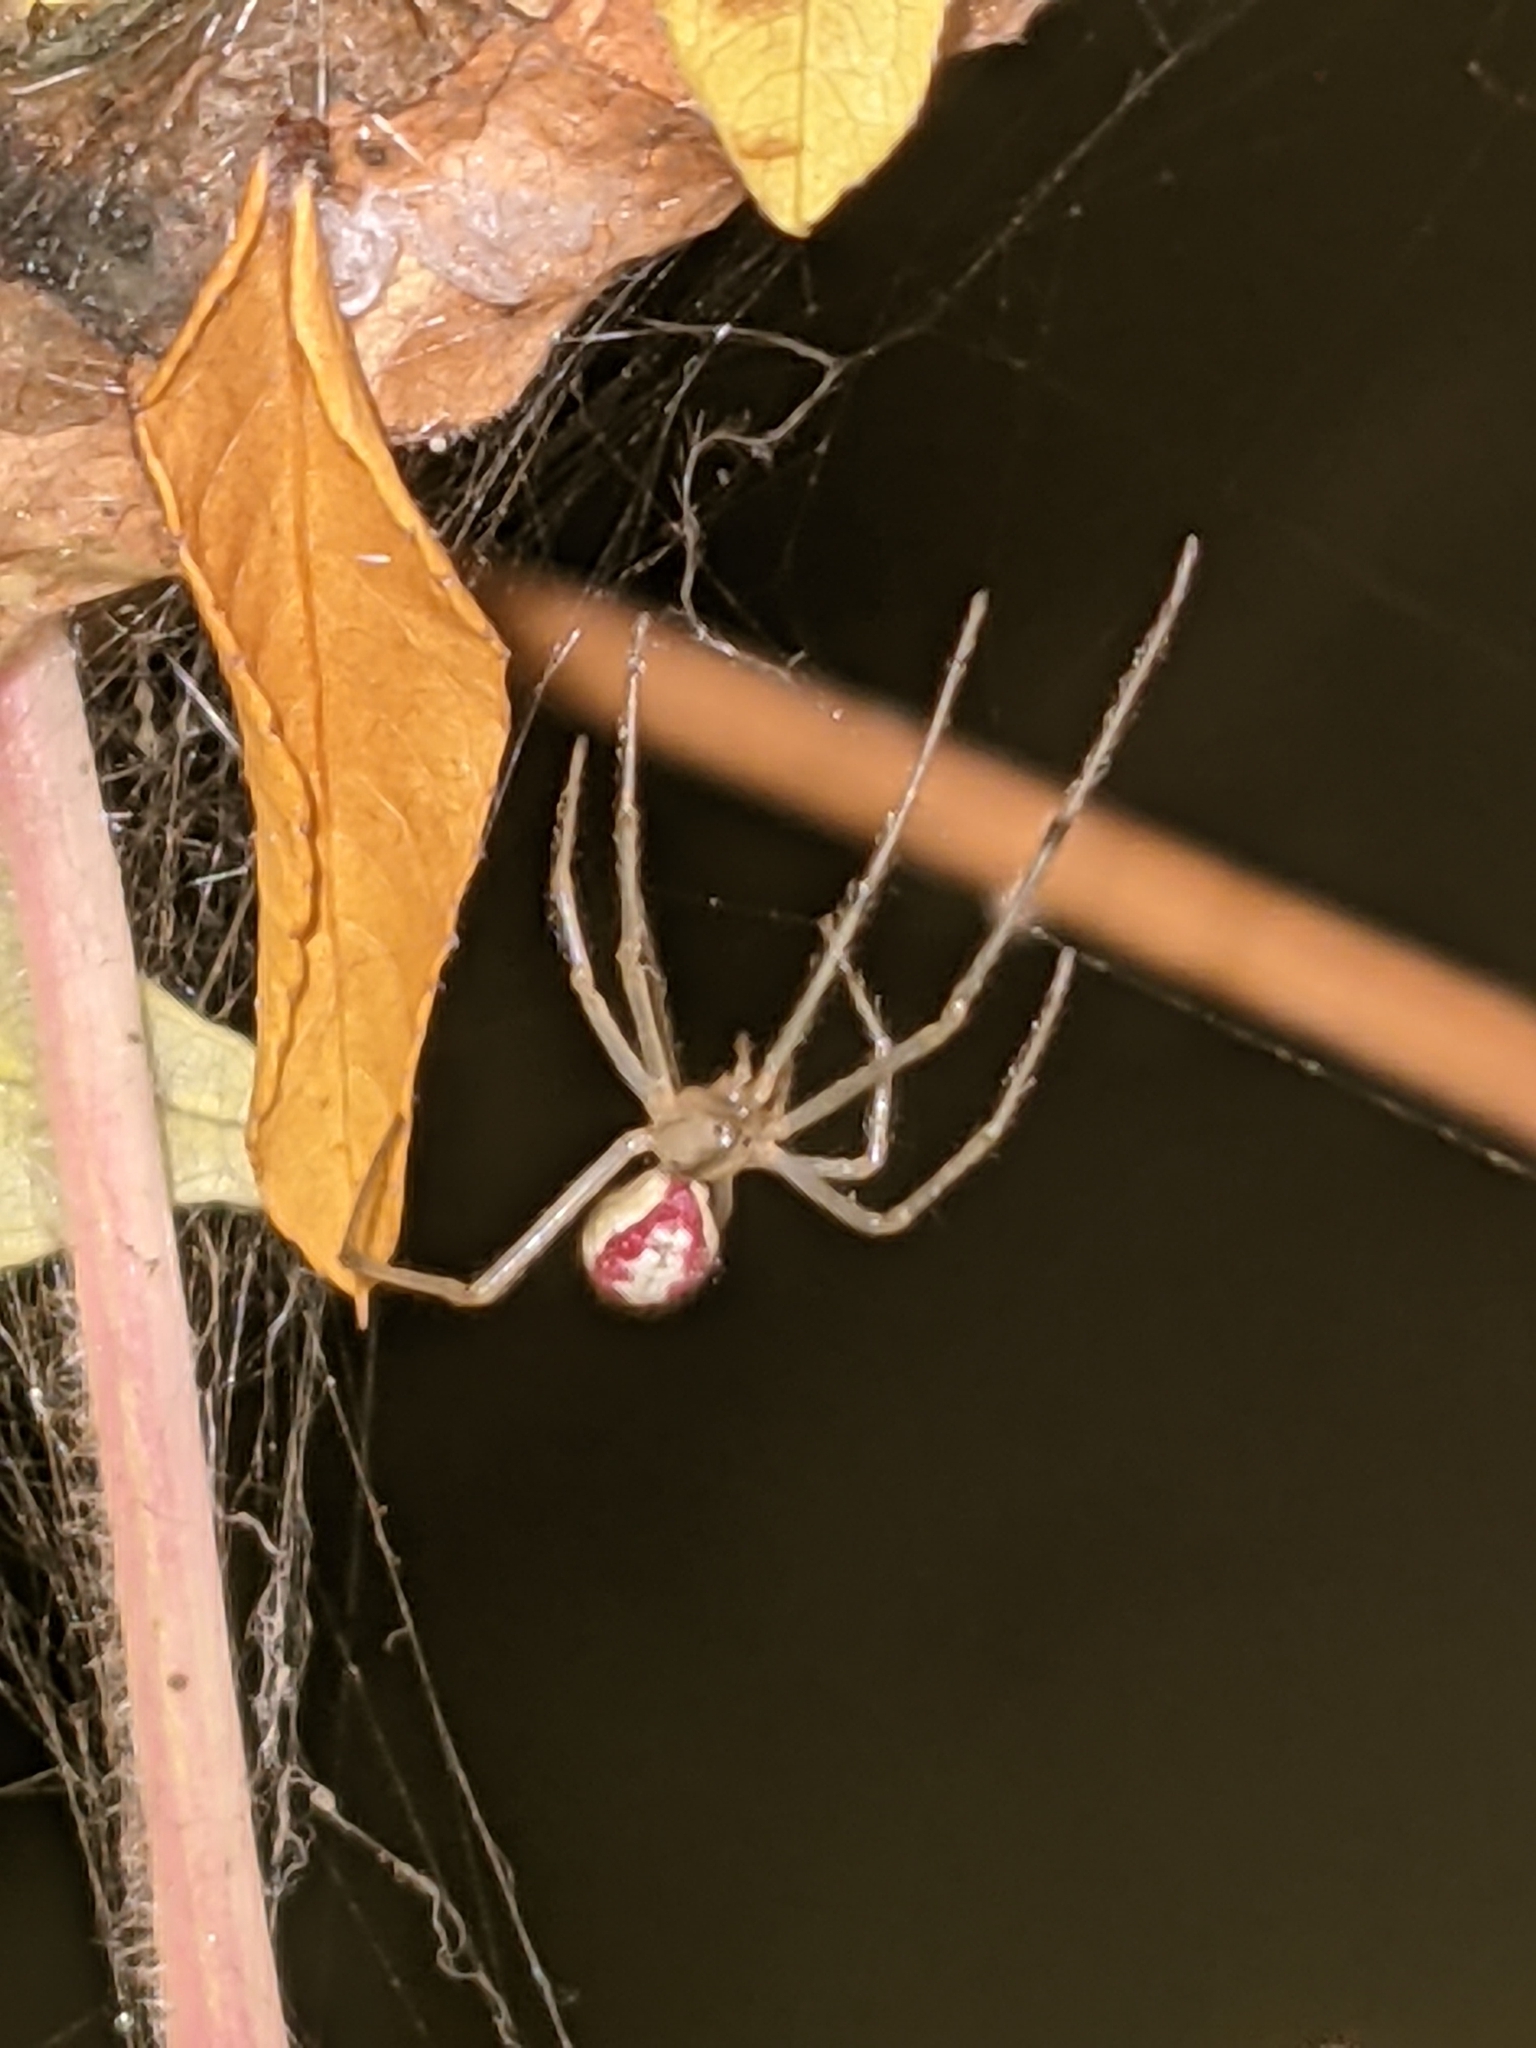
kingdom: Animalia
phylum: Arthropoda
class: Arachnida
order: Araneae
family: Theridiidae
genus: Enoplognatha
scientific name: Enoplognatha ovata
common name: Common candy-striped spider
